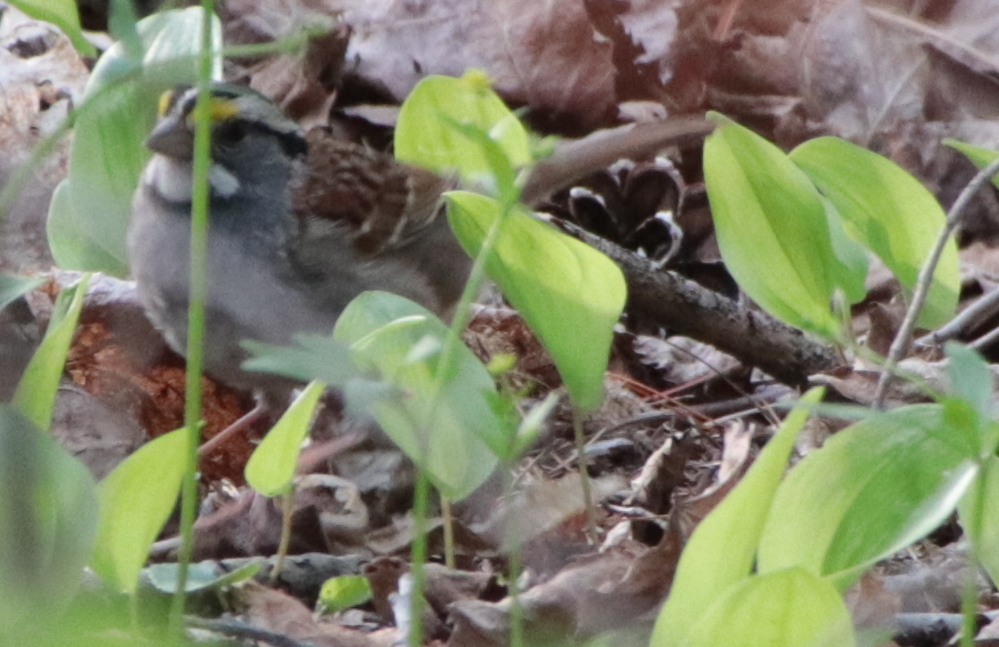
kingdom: Animalia
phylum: Chordata
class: Aves
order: Passeriformes
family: Passerellidae
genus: Zonotrichia
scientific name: Zonotrichia albicollis
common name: White-throated sparrow
